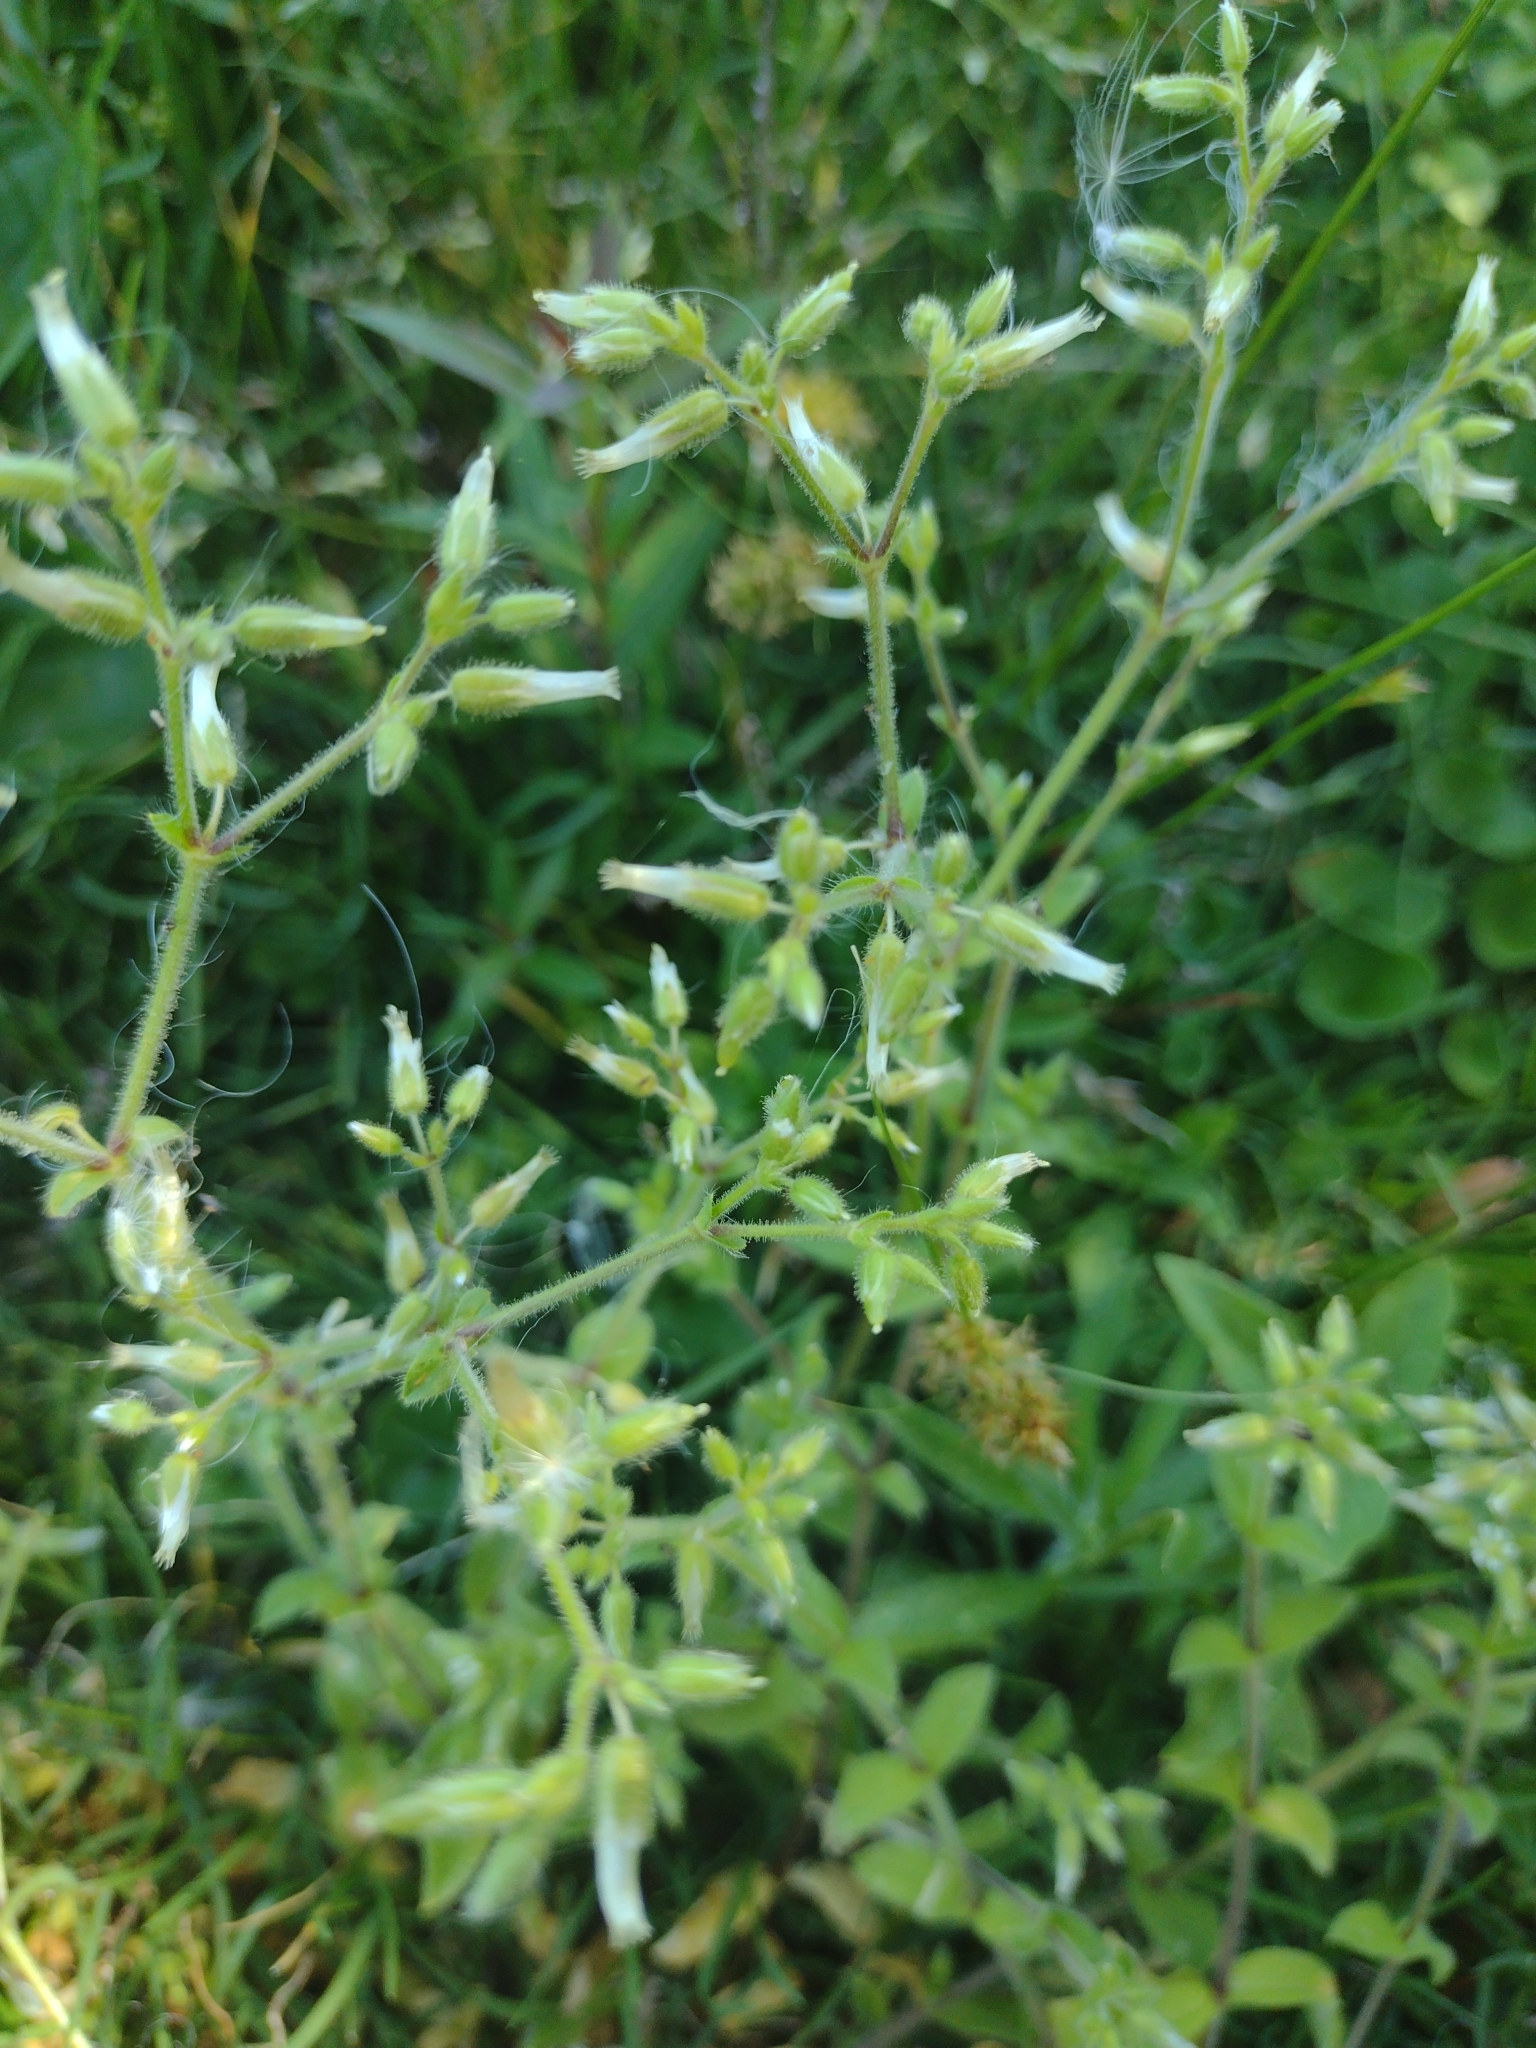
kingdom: Plantae
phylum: Tracheophyta
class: Magnoliopsida
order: Caryophyllales
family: Caryophyllaceae
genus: Cerastium
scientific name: Cerastium glomeratum
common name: Sticky chickweed
